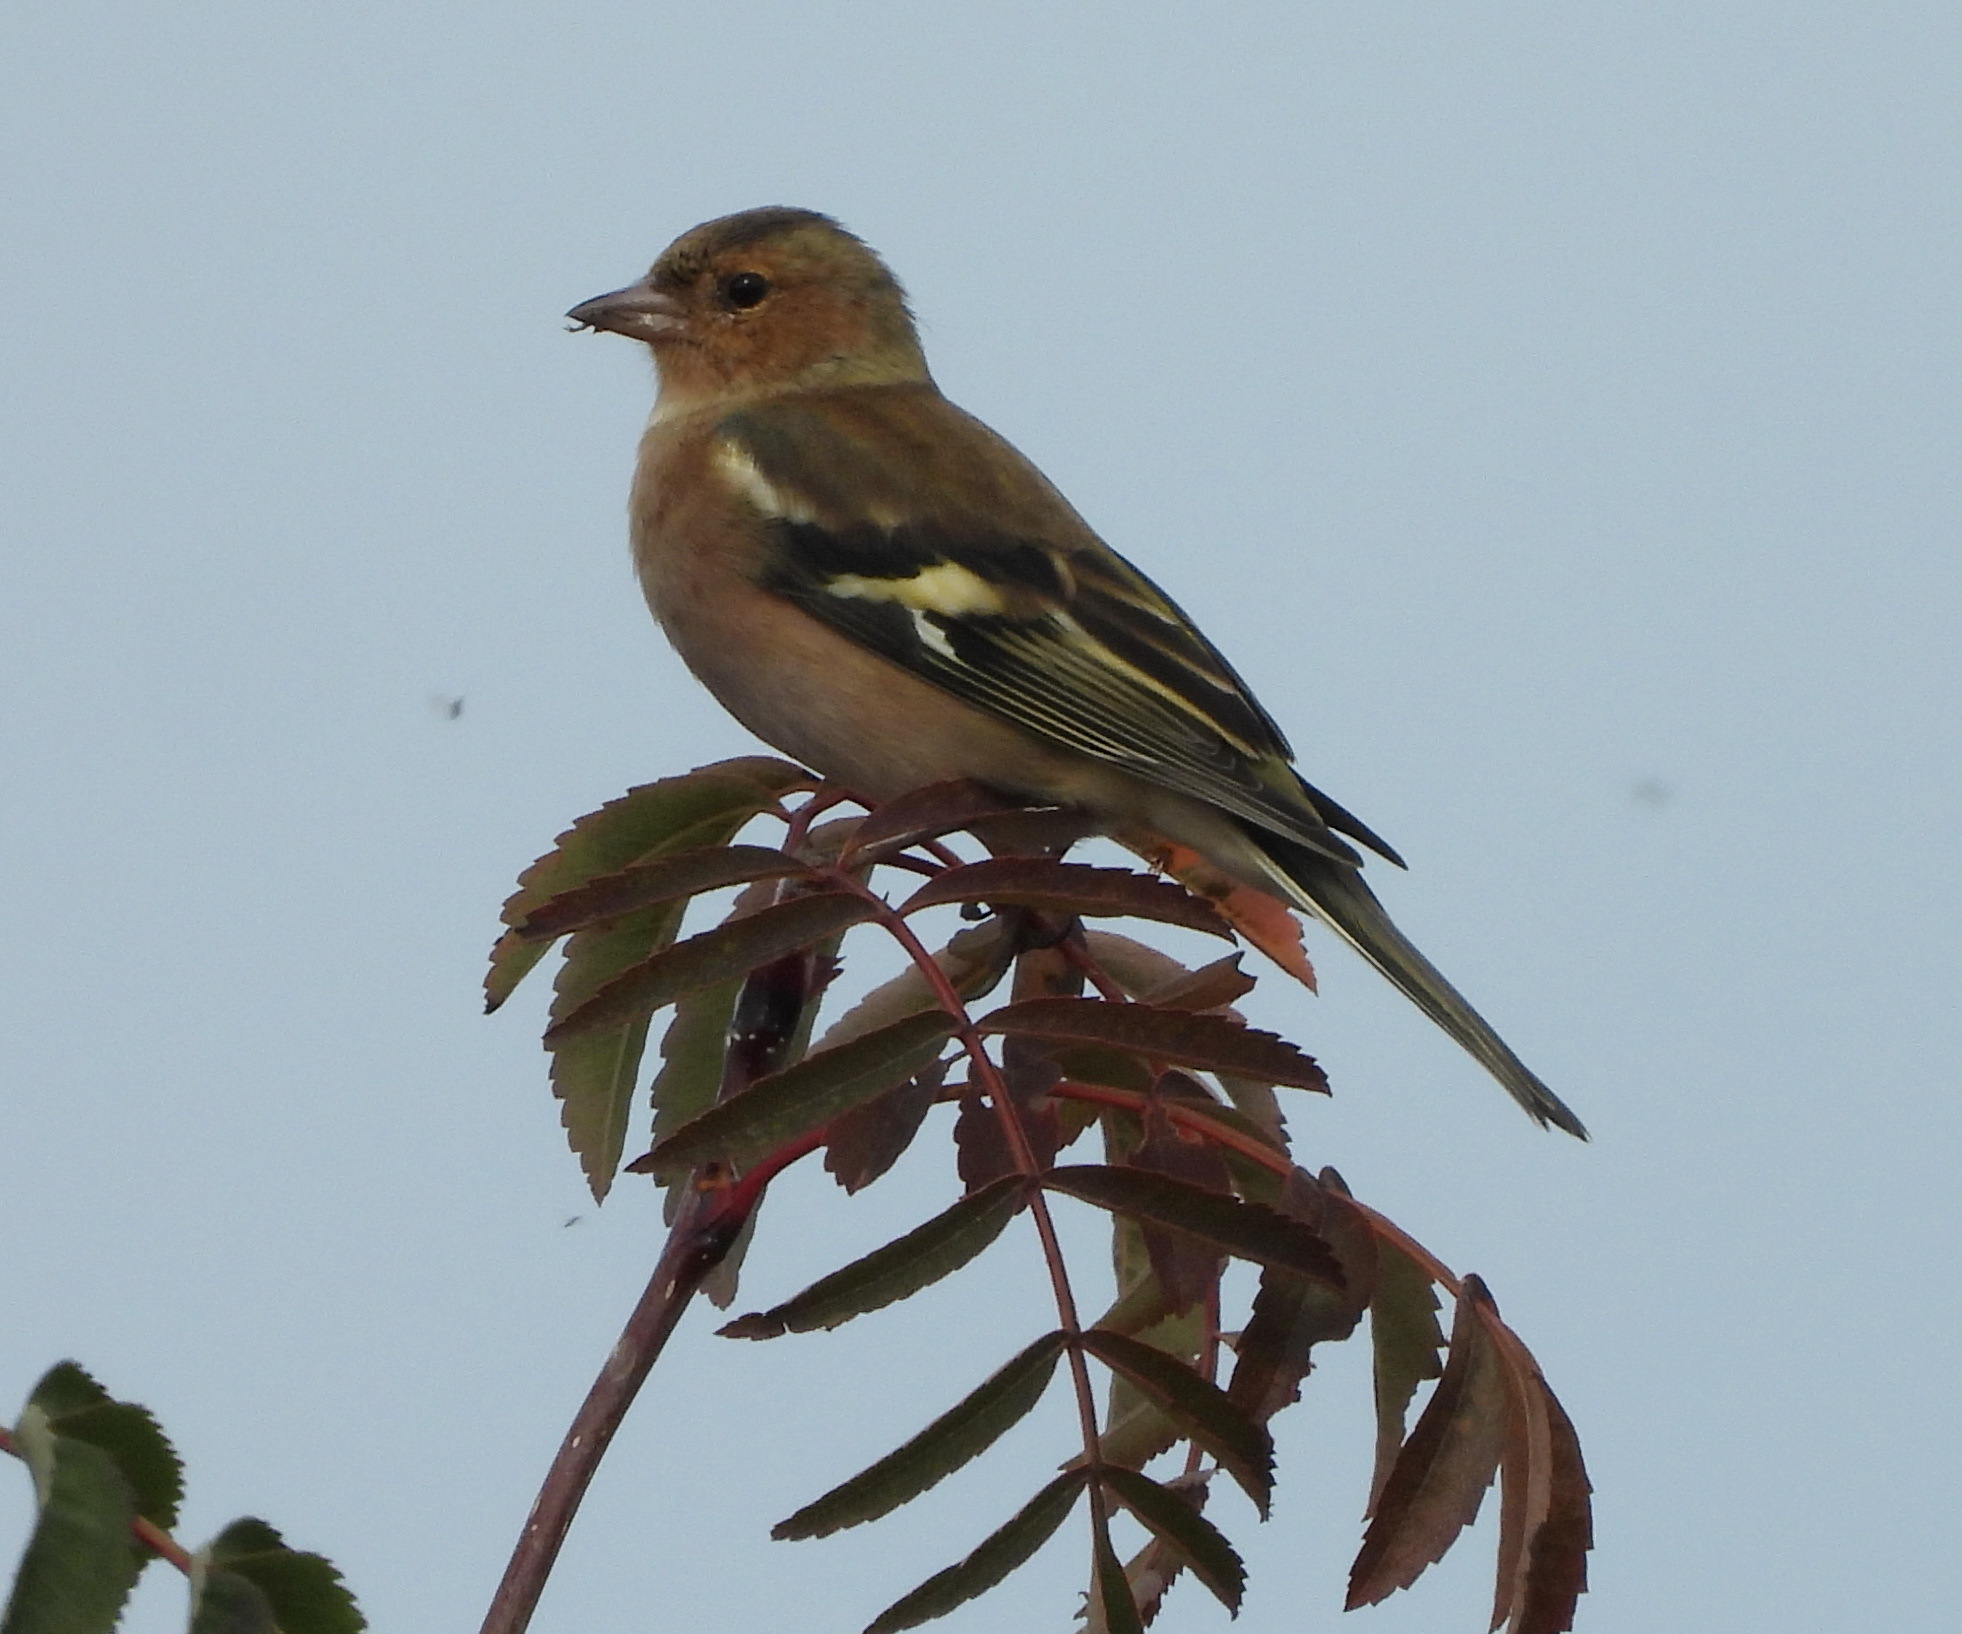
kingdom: Animalia
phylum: Chordata
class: Aves
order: Passeriformes
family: Fringillidae
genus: Fringilla
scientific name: Fringilla coelebs
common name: Common chaffinch
